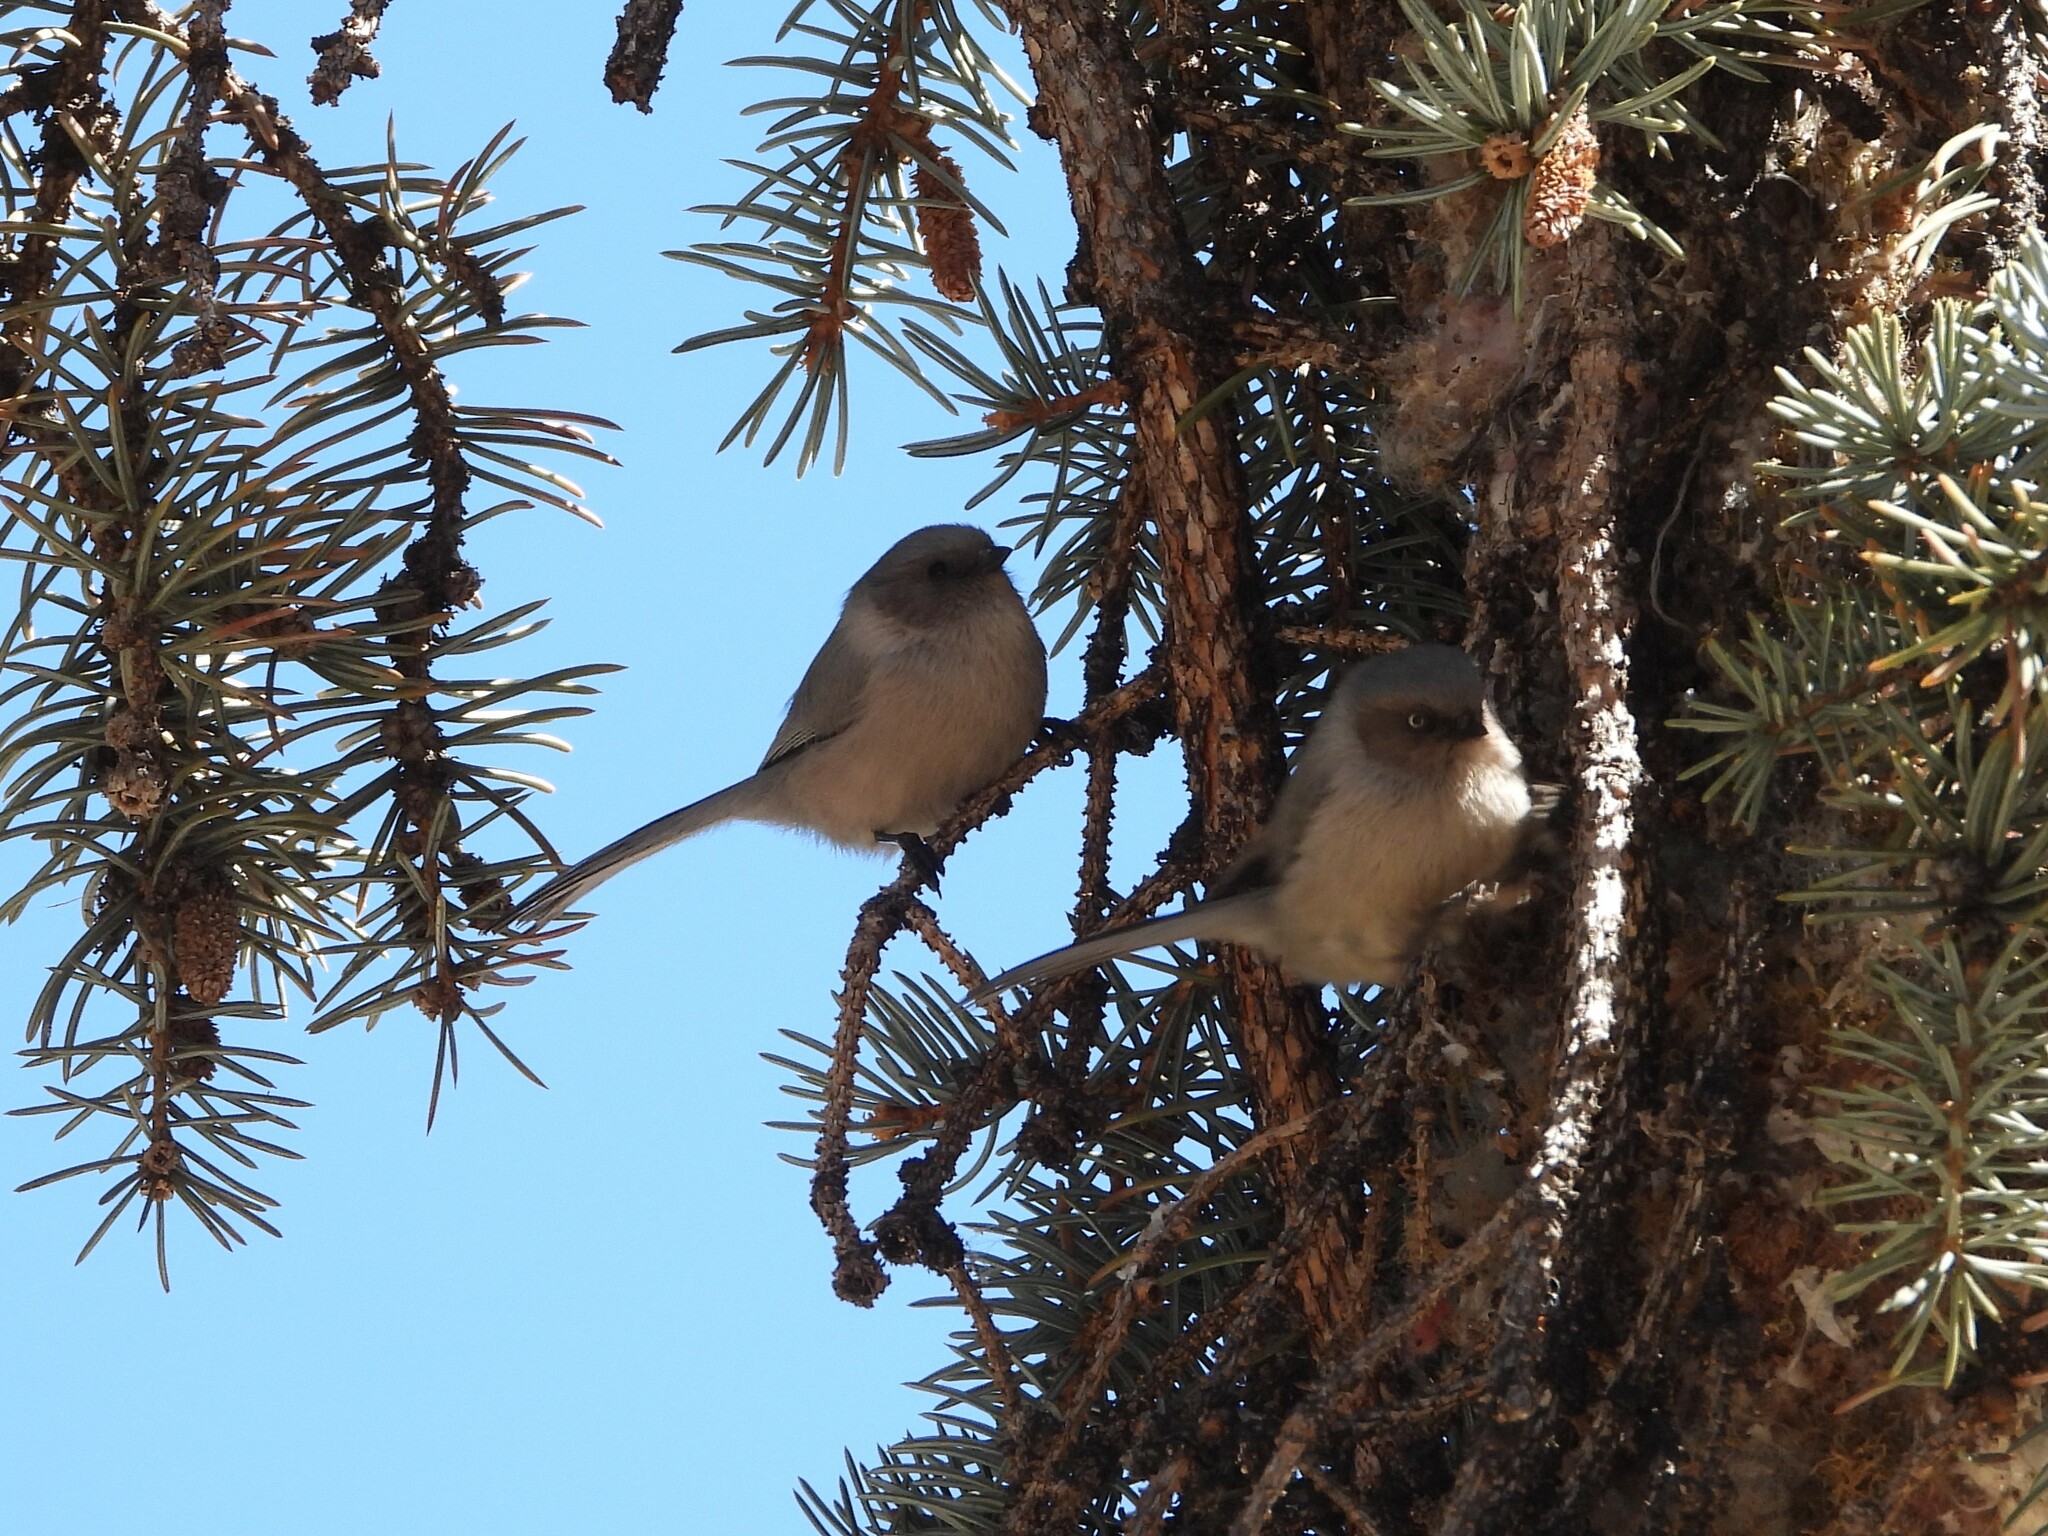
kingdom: Animalia
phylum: Chordata
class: Aves
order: Passeriformes
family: Aegithalidae
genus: Psaltriparus
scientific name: Psaltriparus minimus
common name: American bushtit
